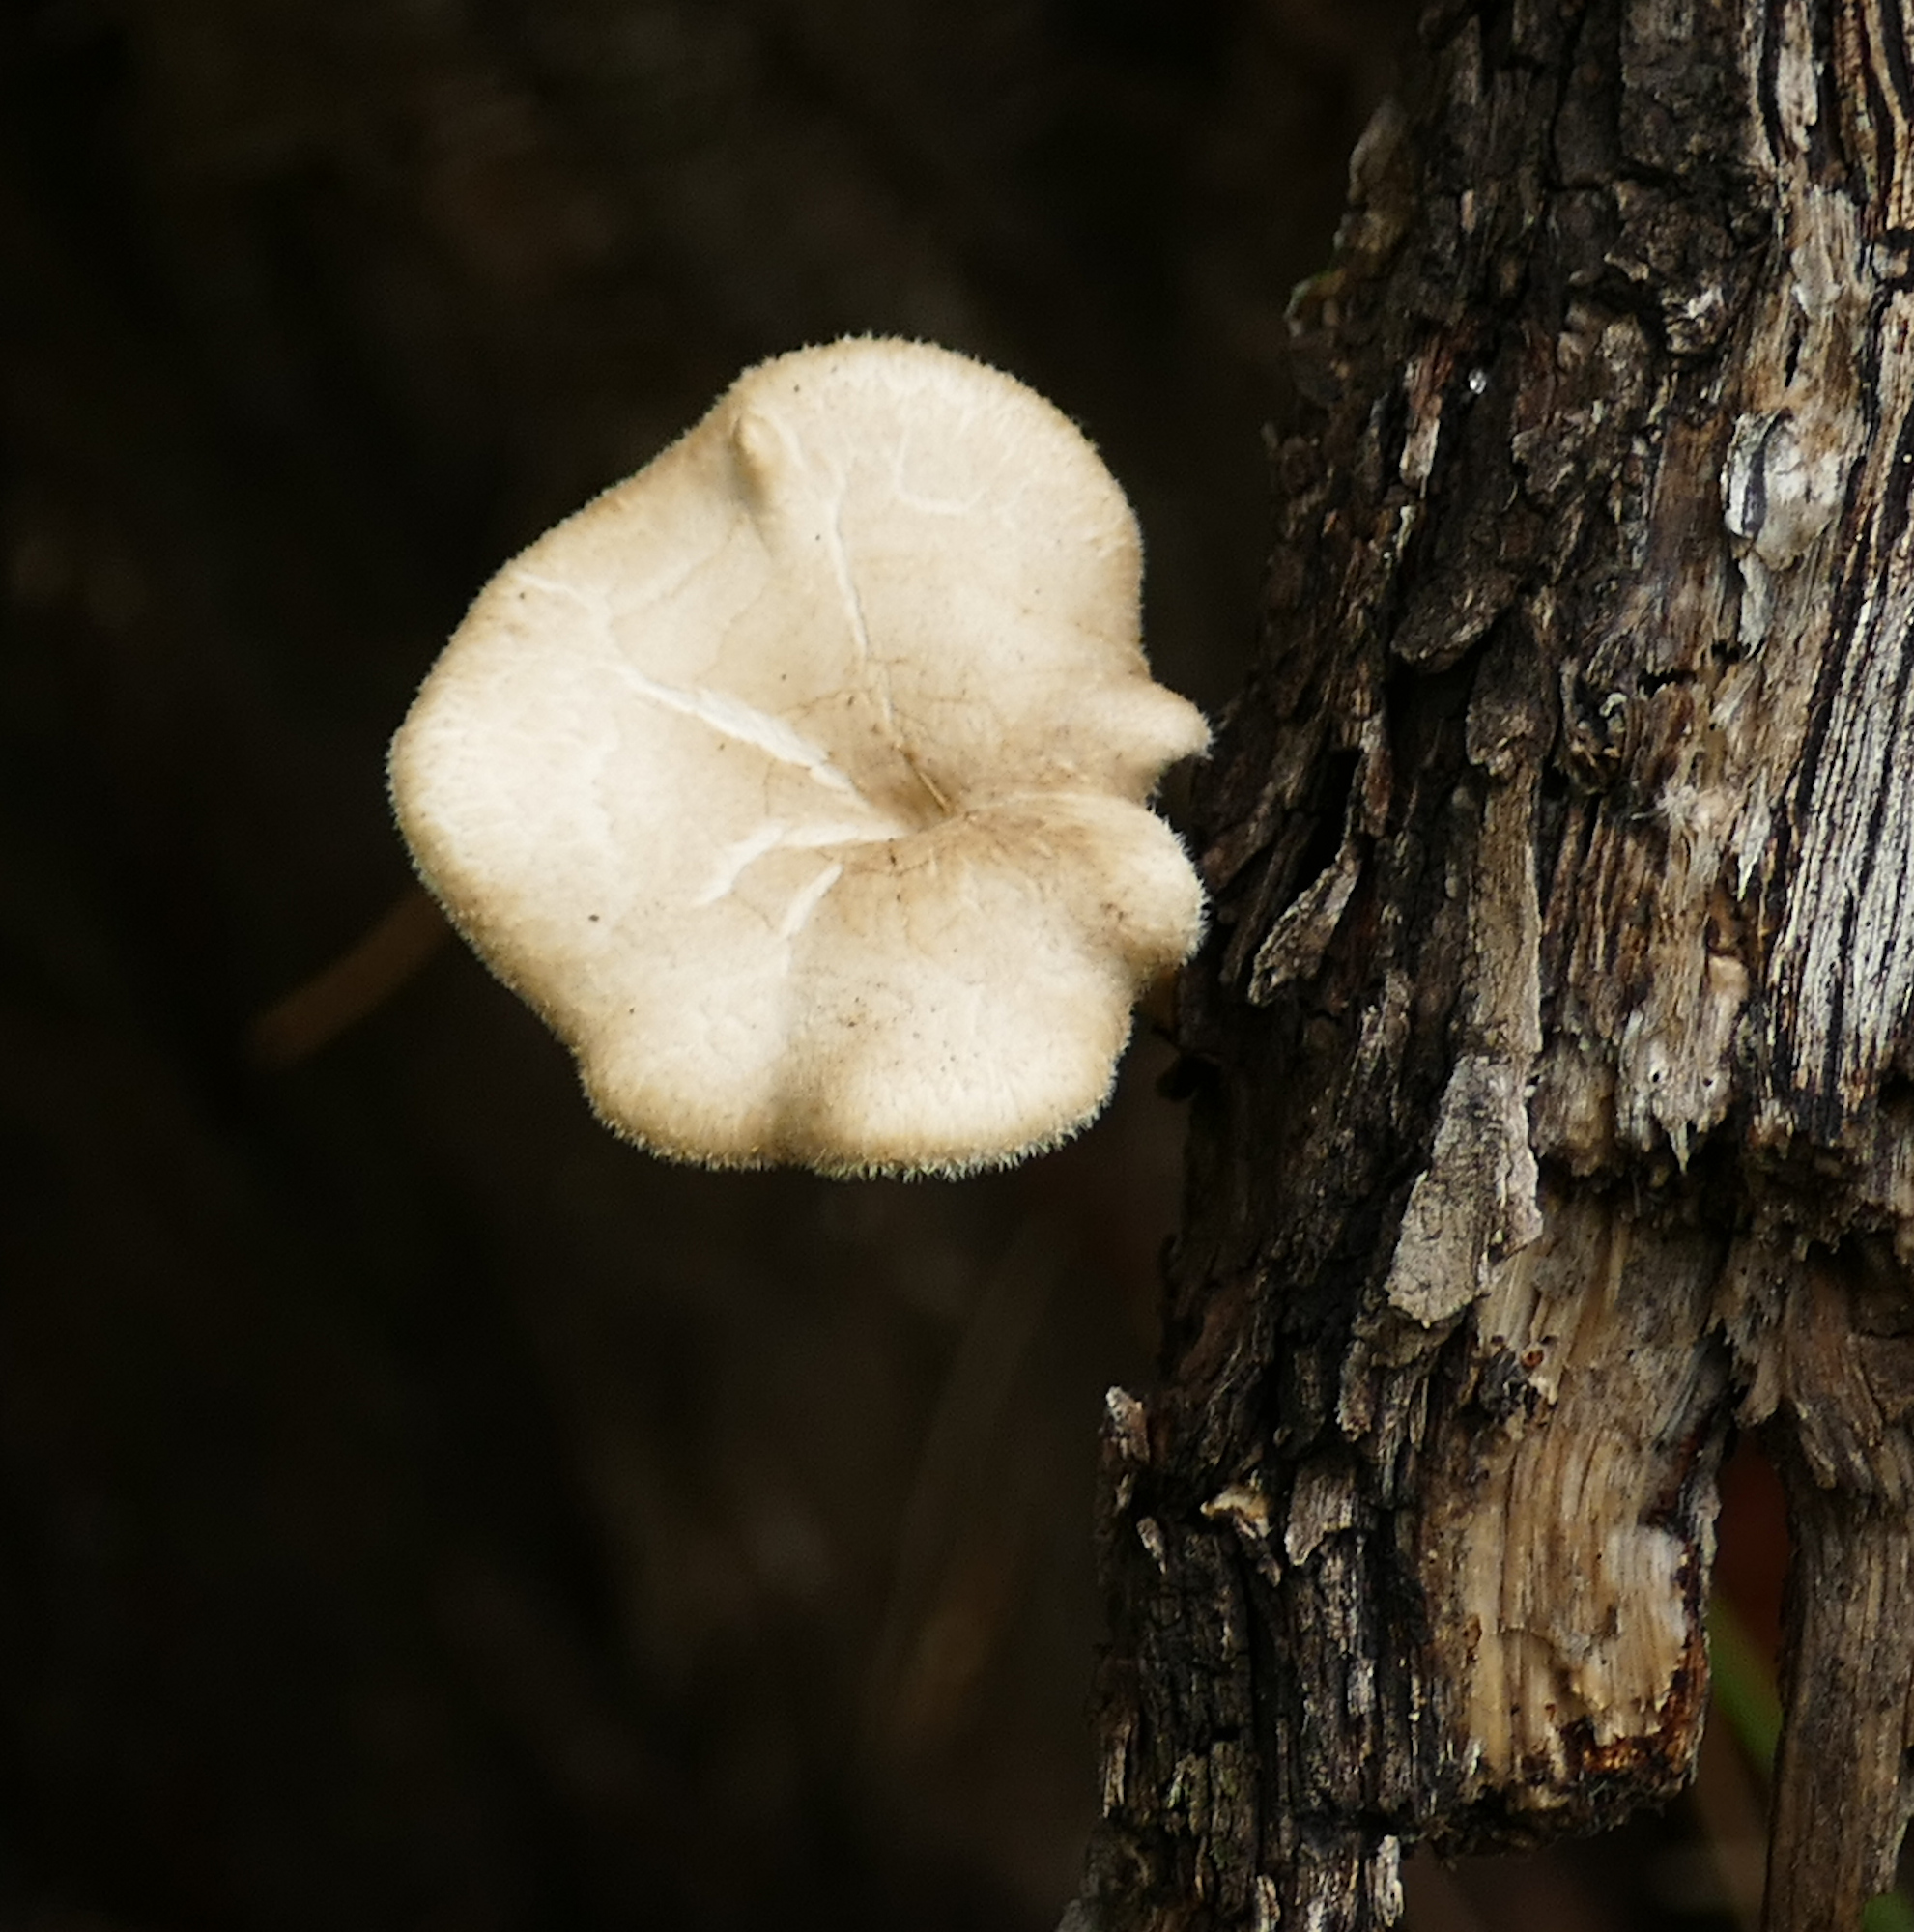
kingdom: Fungi
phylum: Basidiomycota
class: Agaricomycetes
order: Polyporales
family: Polyporaceae
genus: Lentinus
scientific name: Lentinus arcularius
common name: Spring polypore
